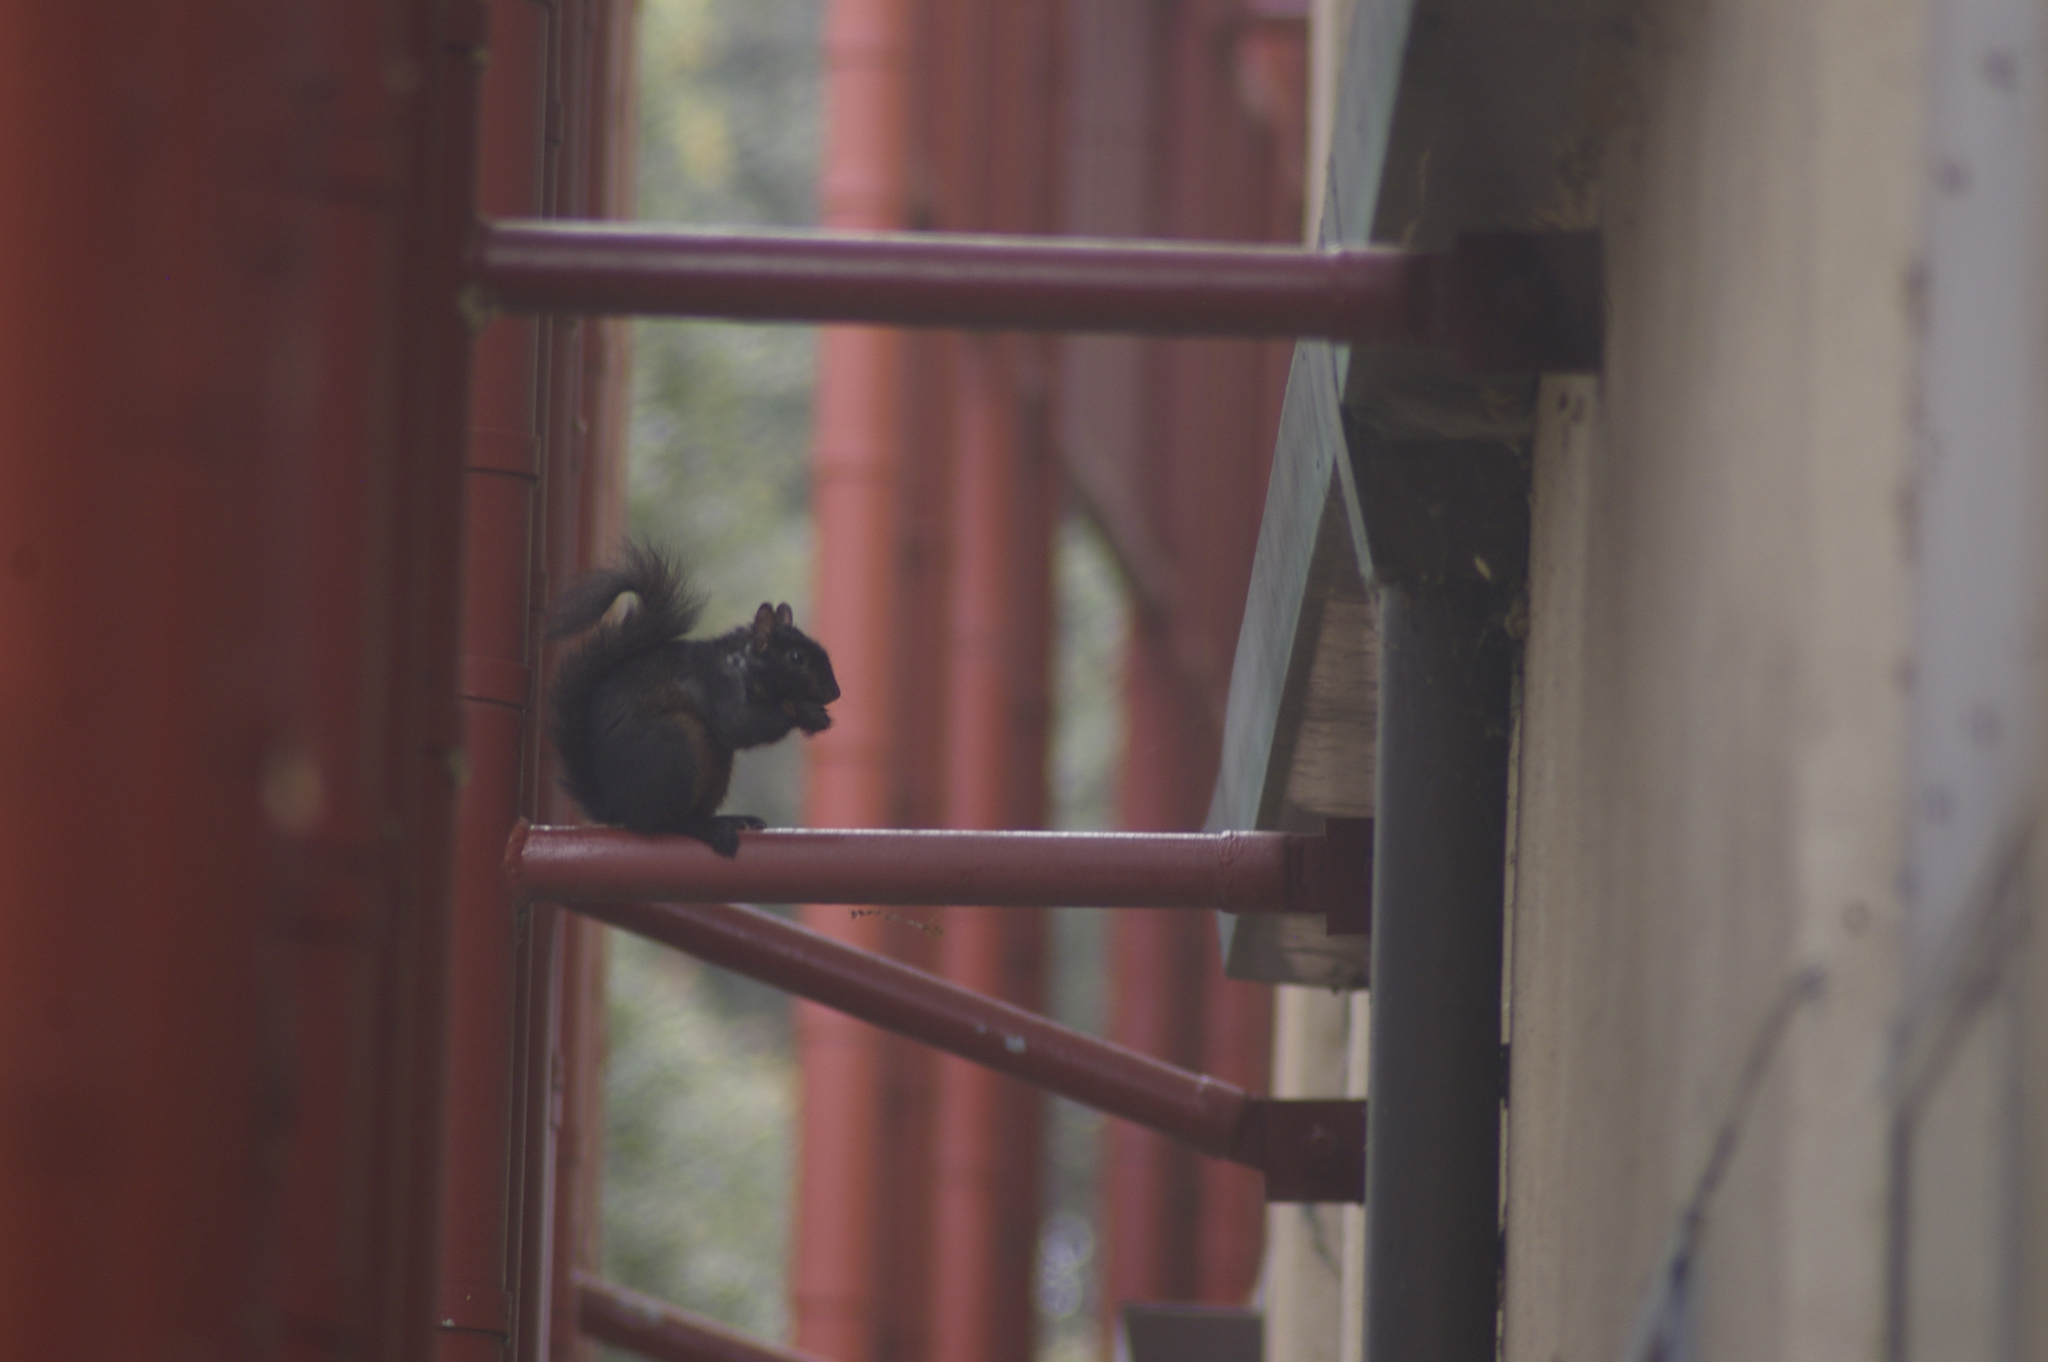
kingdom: Animalia
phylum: Chordata
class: Mammalia
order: Rodentia
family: Sciuridae
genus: Sciurus
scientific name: Sciurus carolinensis
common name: Eastern gray squirrel
